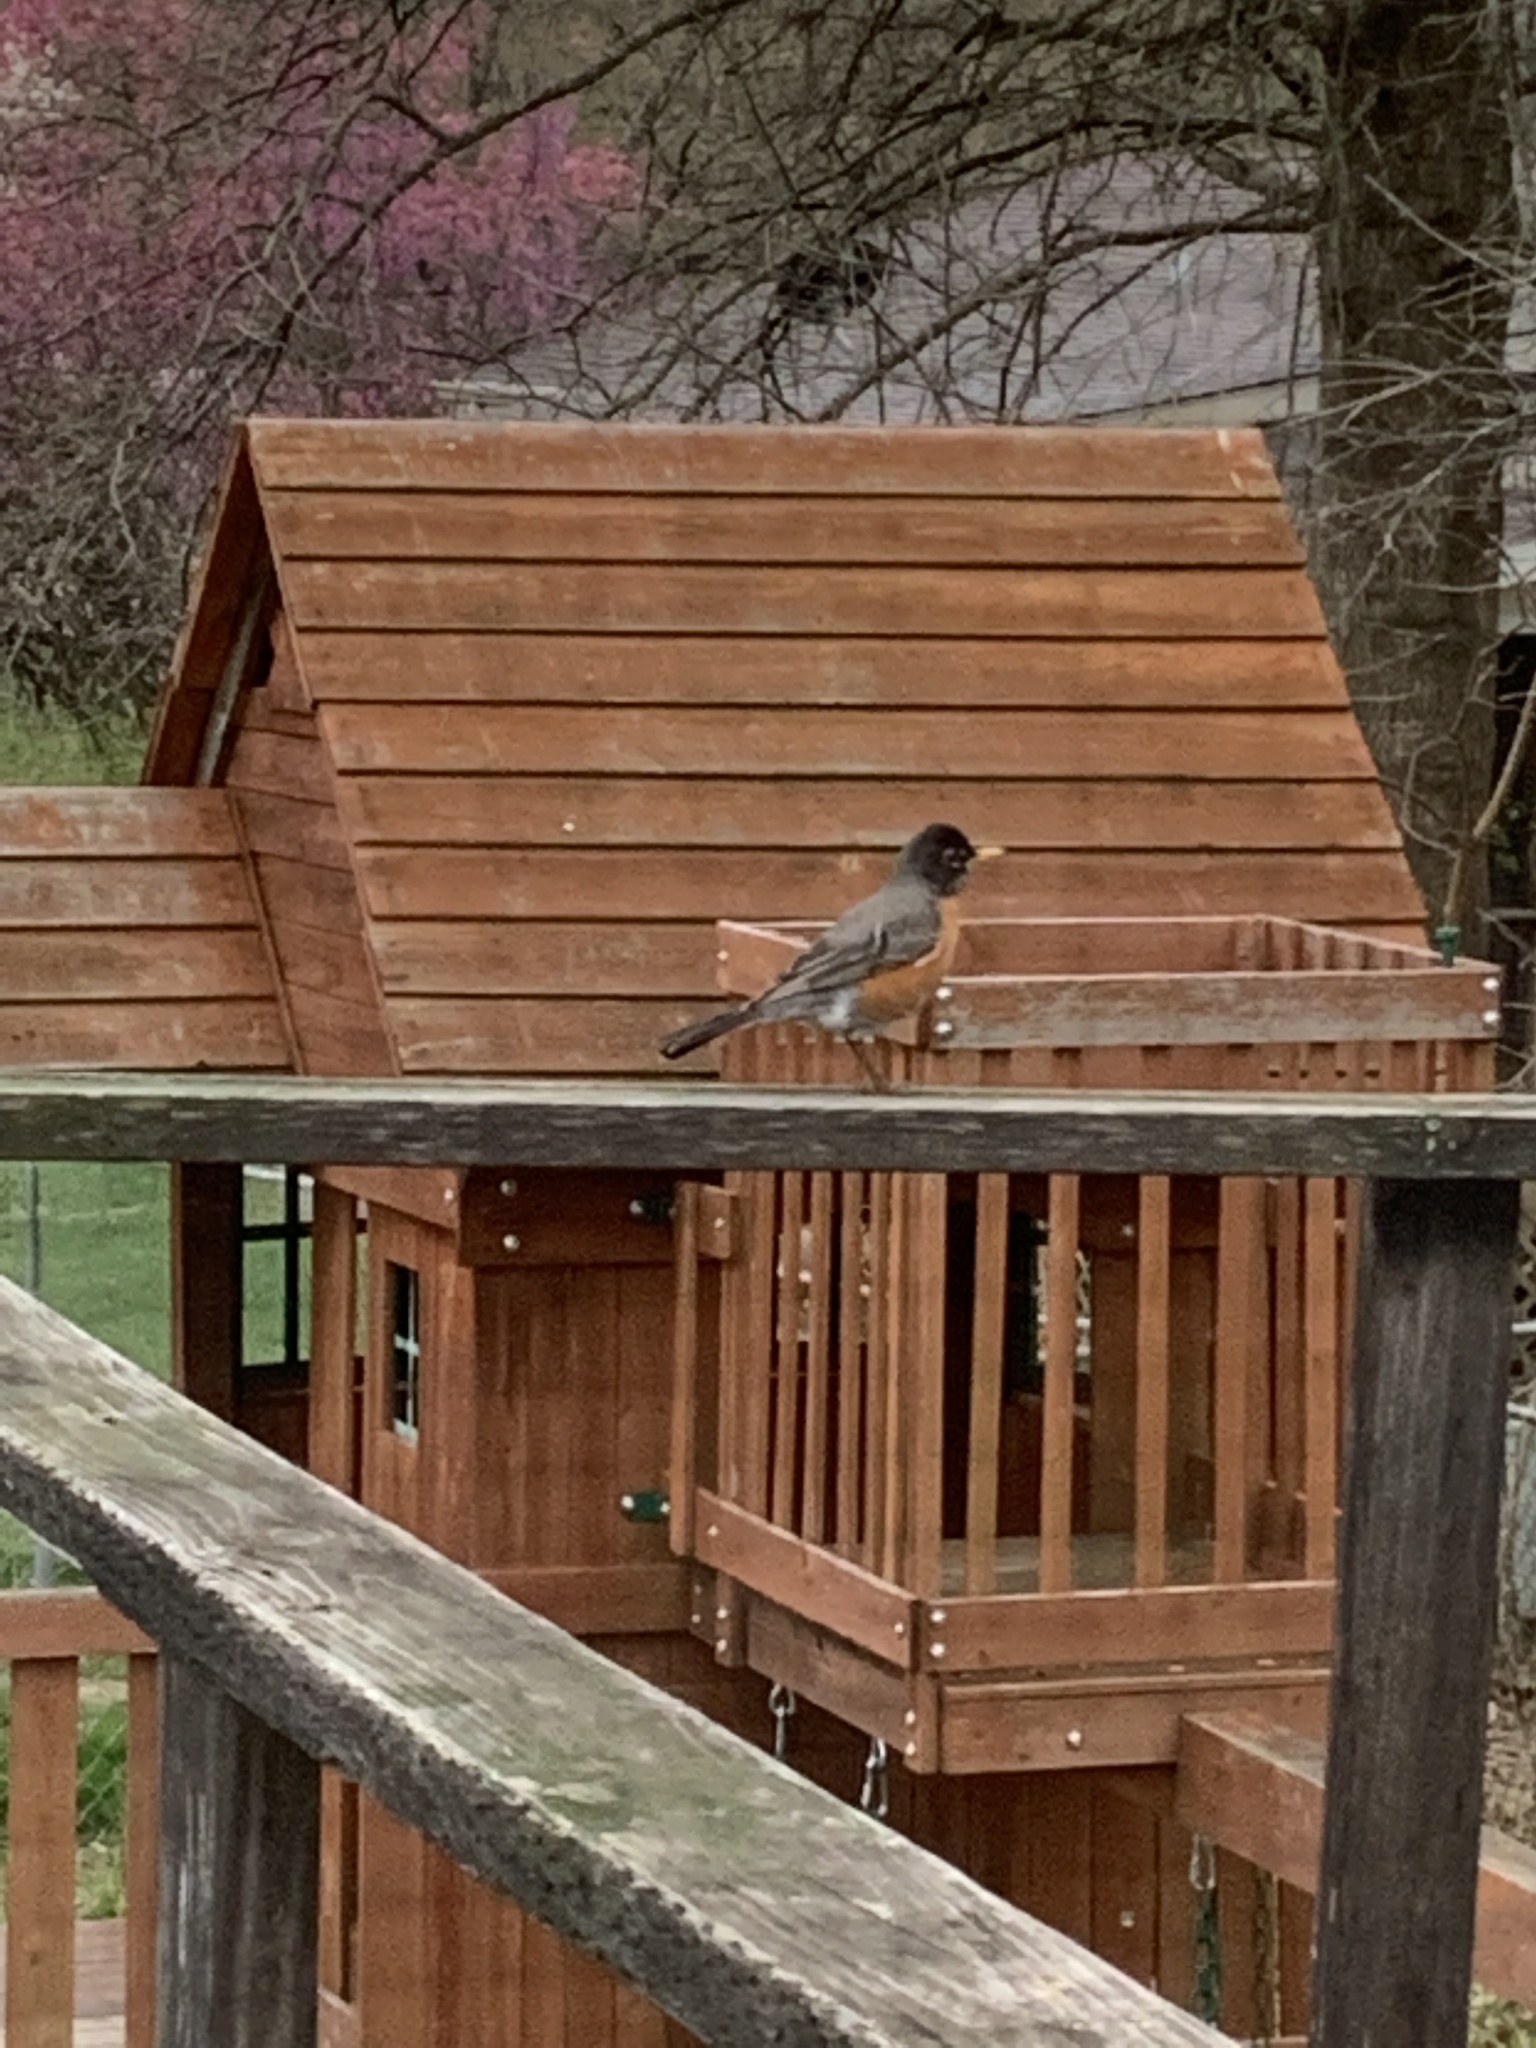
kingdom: Animalia
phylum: Chordata
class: Aves
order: Passeriformes
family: Turdidae
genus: Turdus
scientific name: Turdus migratorius
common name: American robin
